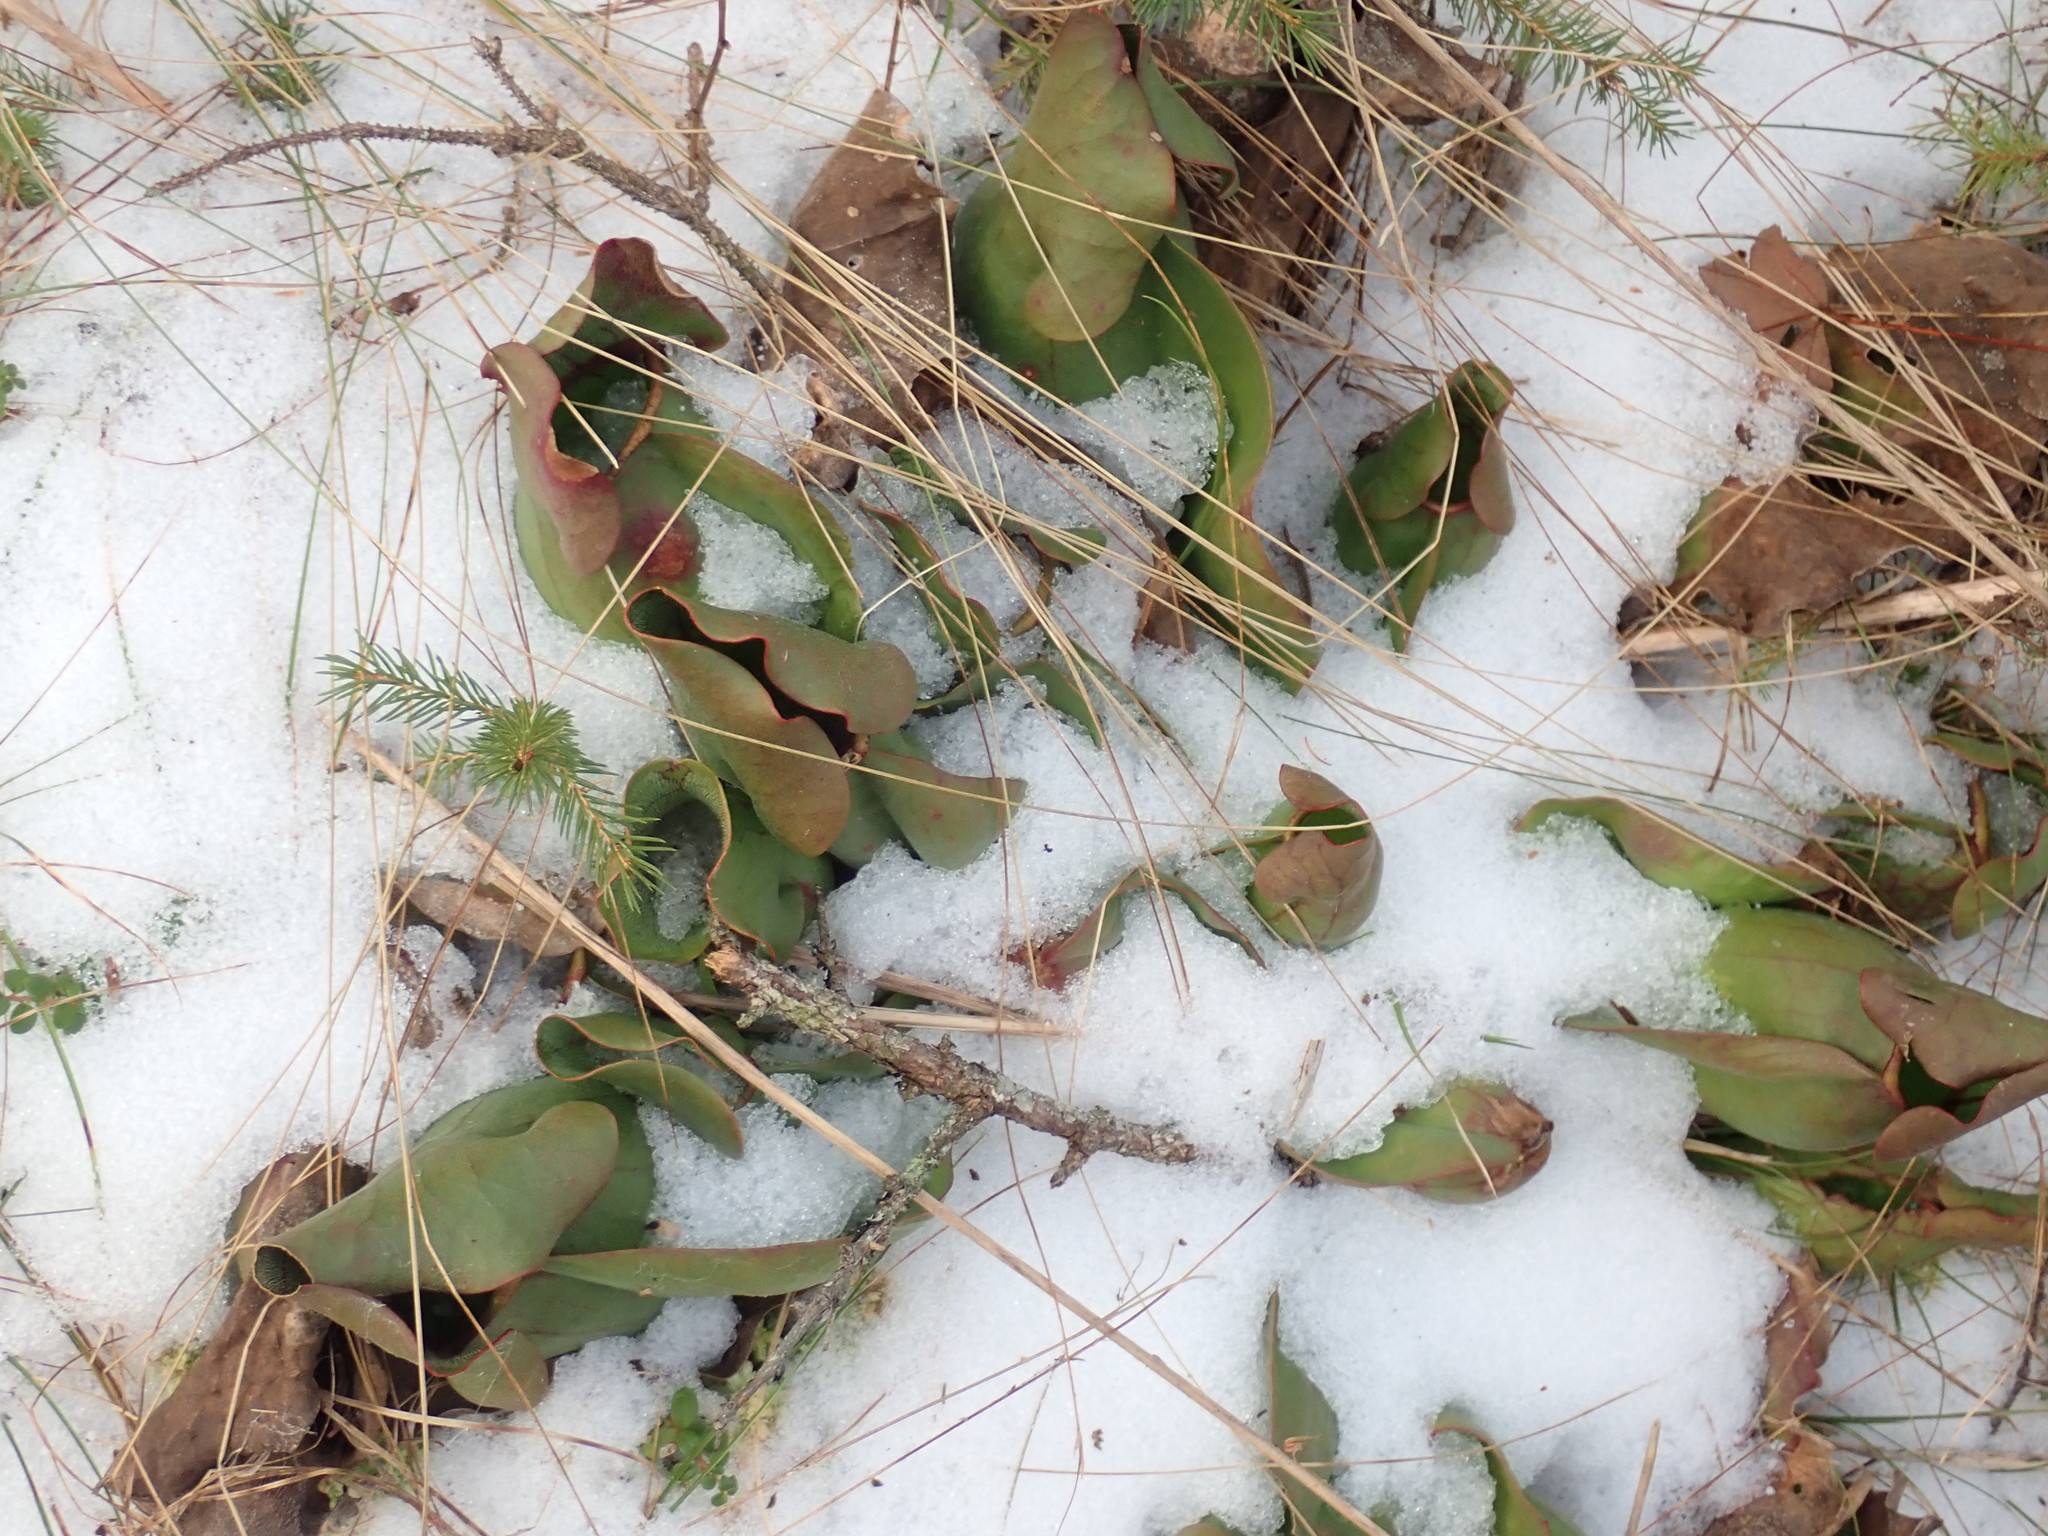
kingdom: Plantae
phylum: Tracheophyta
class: Magnoliopsida
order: Ericales
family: Sarraceniaceae
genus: Sarracenia
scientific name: Sarracenia purpurea
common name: Pitcherplant
